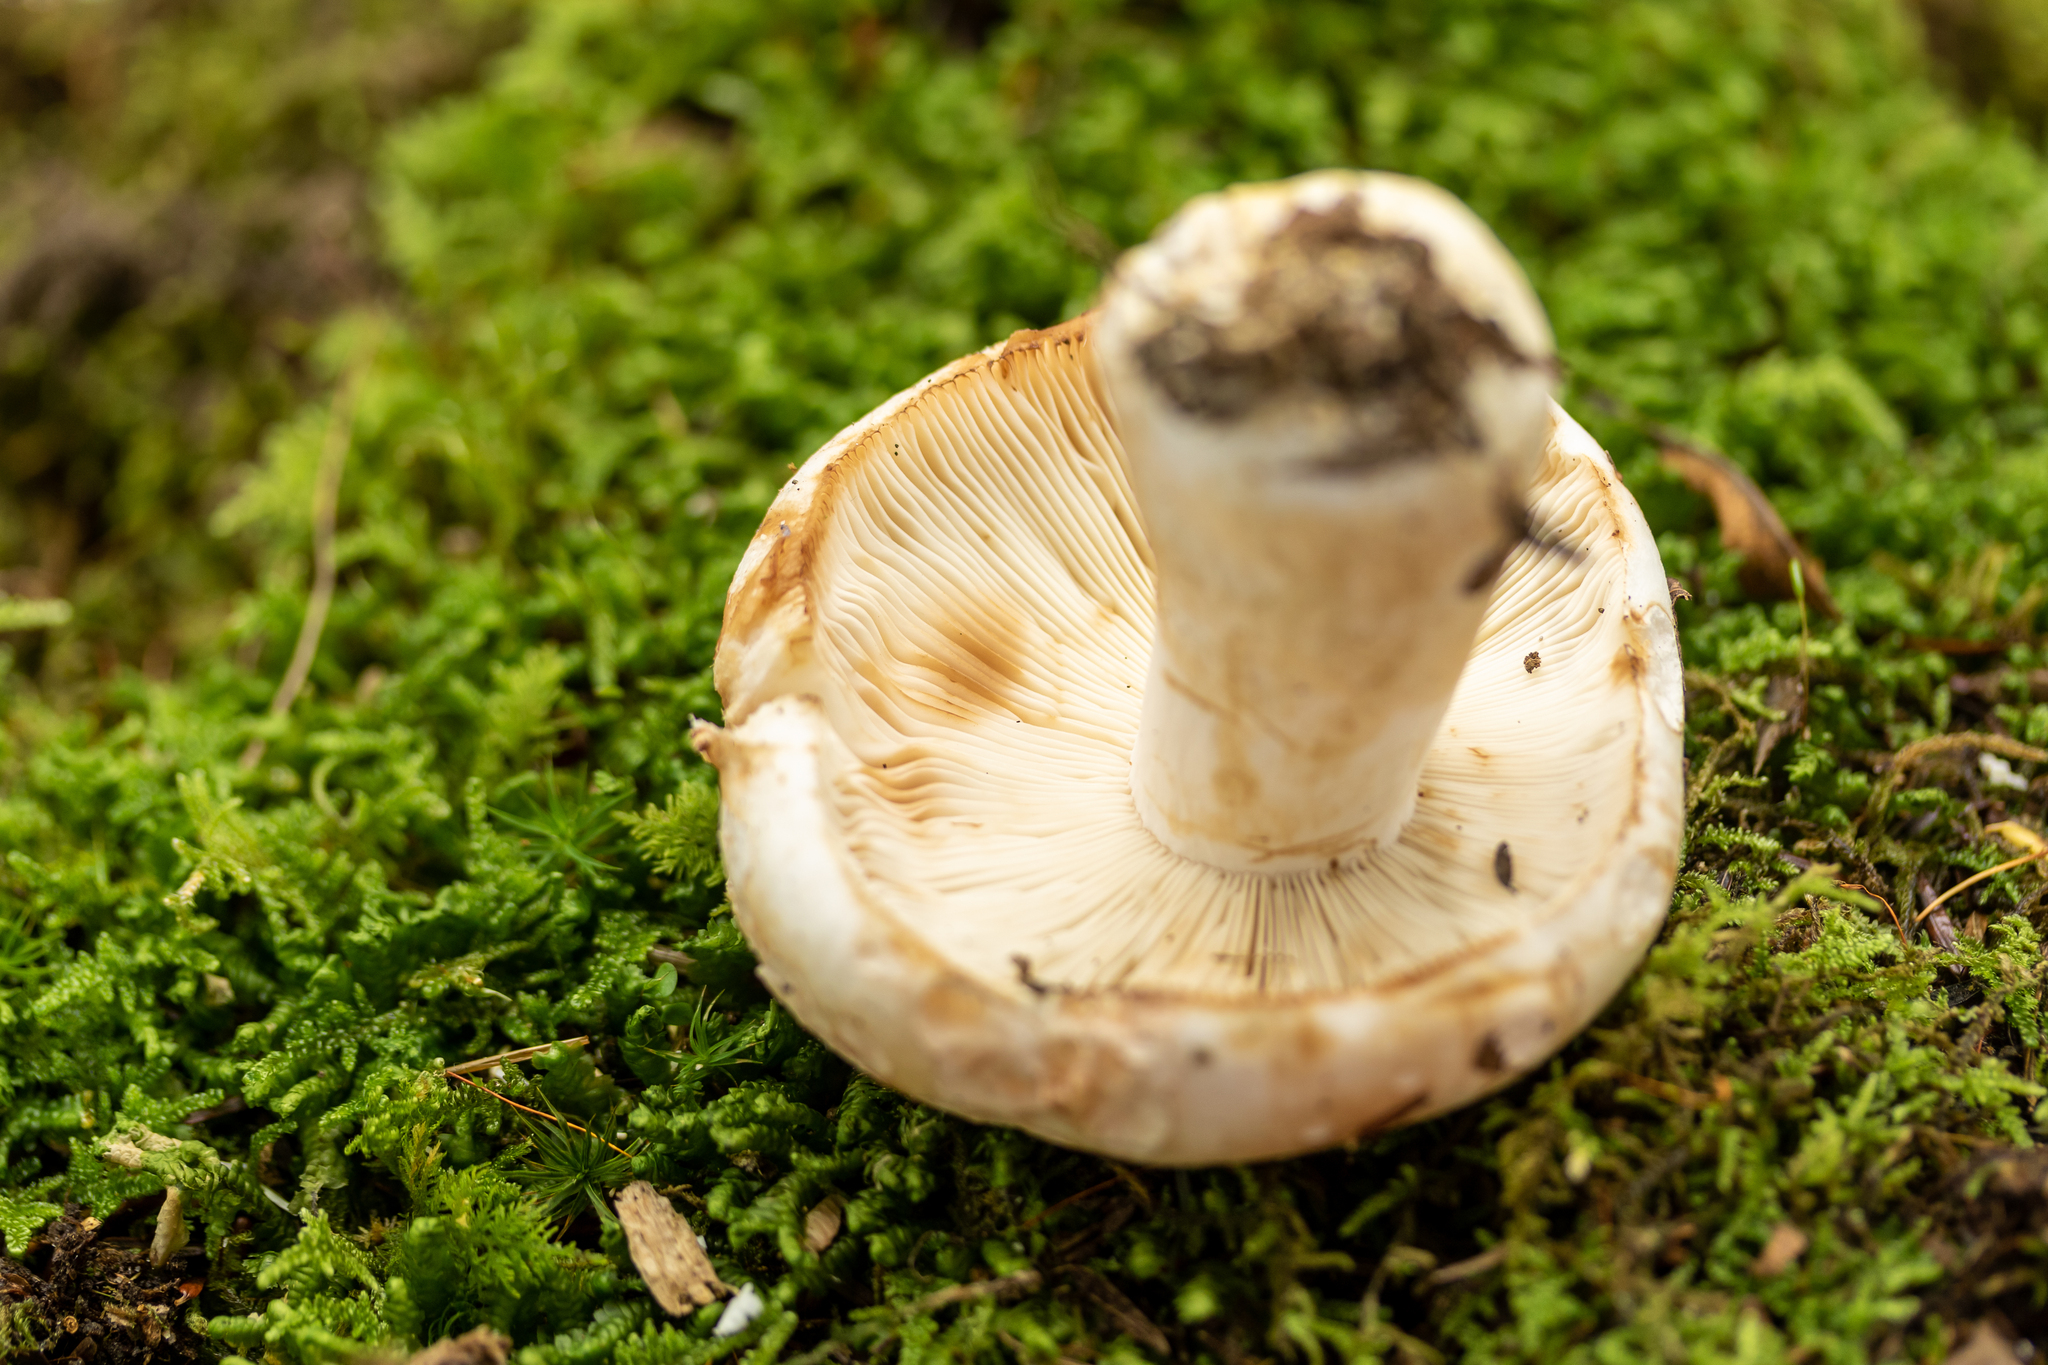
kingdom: Fungi
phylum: Basidiomycota
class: Agaricomycetes
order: Russulales
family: Russulaceae
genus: Russula
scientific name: Russula compacta
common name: Fishbiscuit russula
